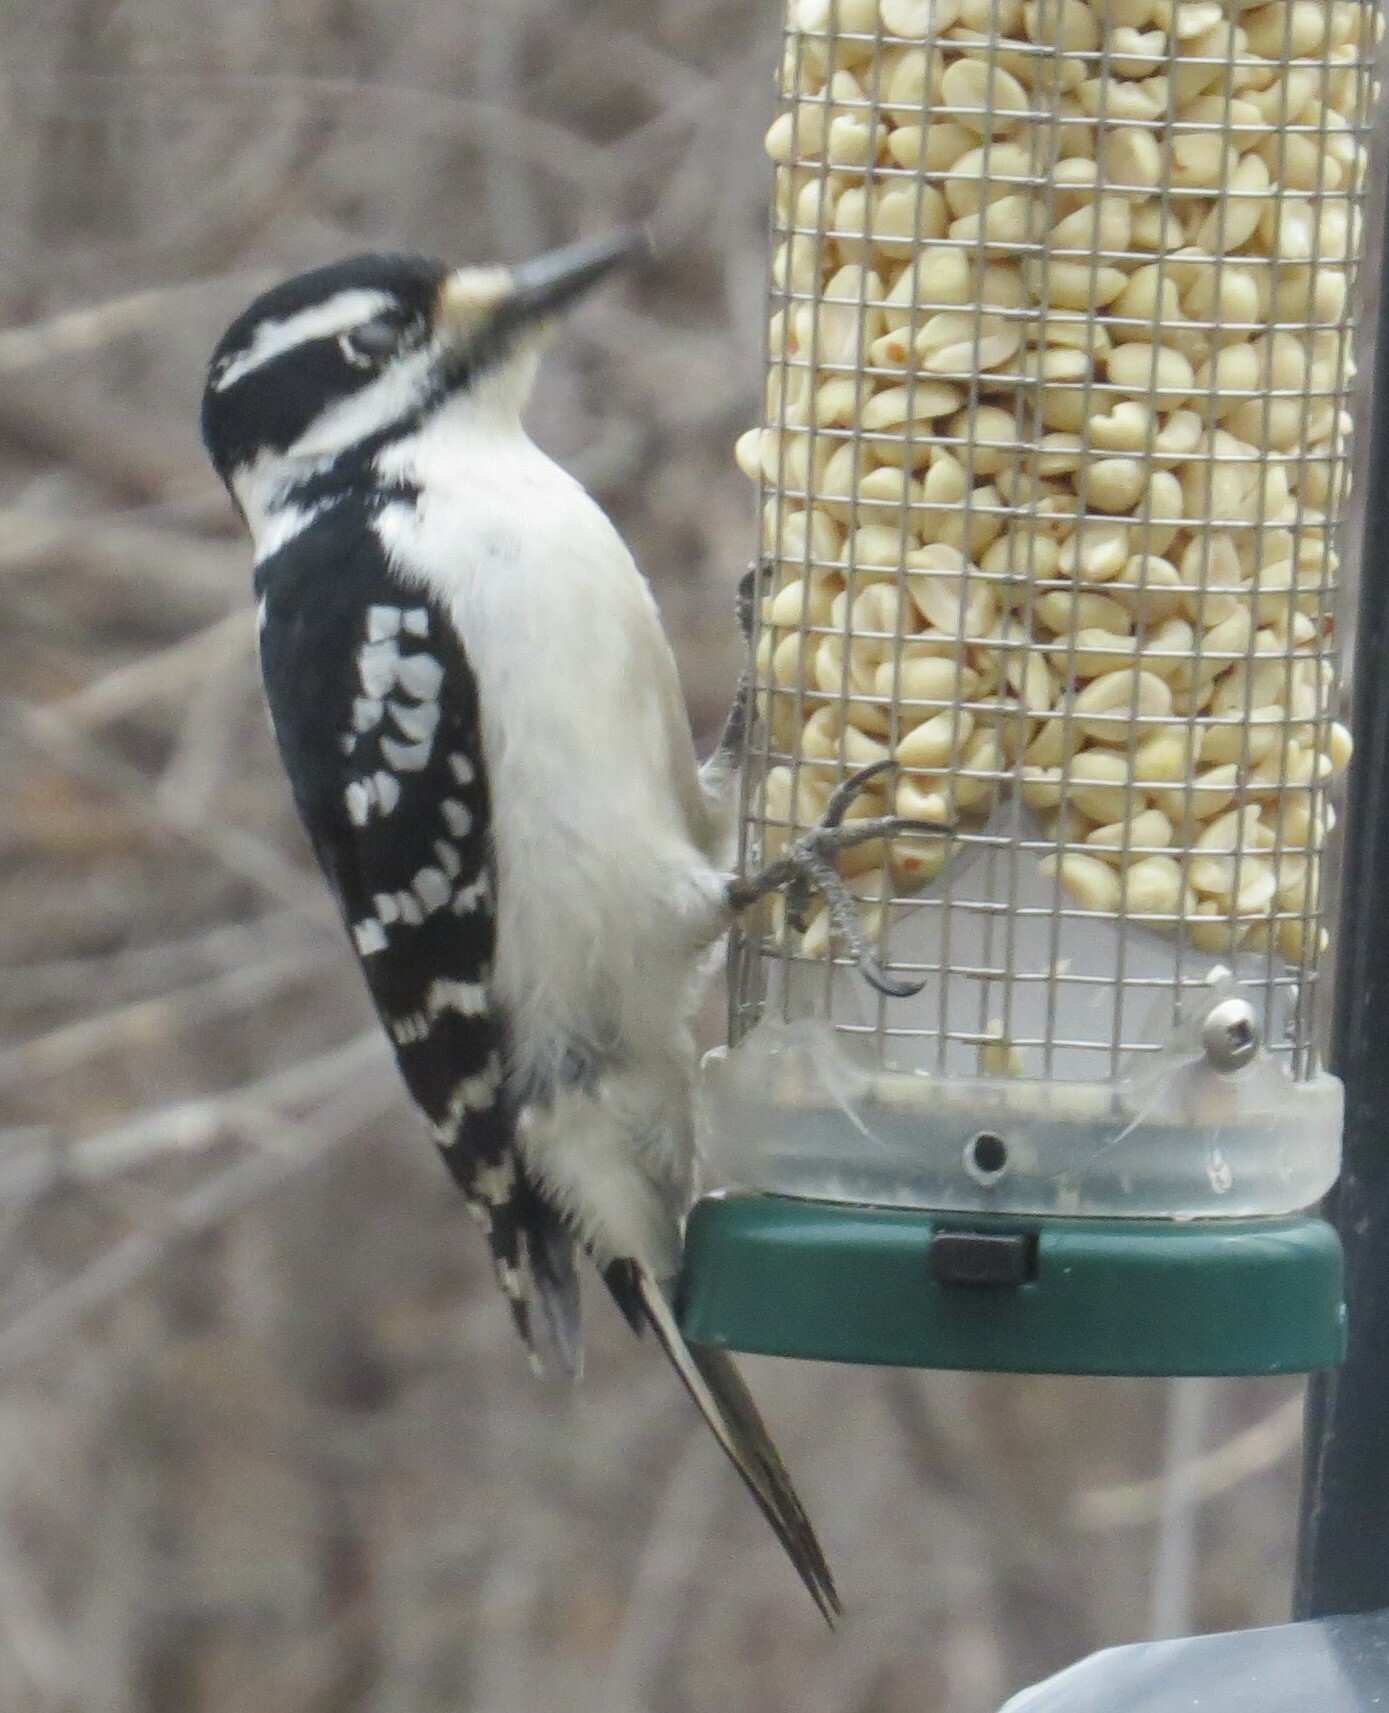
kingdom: Animalia
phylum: Chordata
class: Aves
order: Piciformes
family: Picidae
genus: Leuconotopicus
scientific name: Leuconotopicus villosus
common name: Hairy woodpecker
